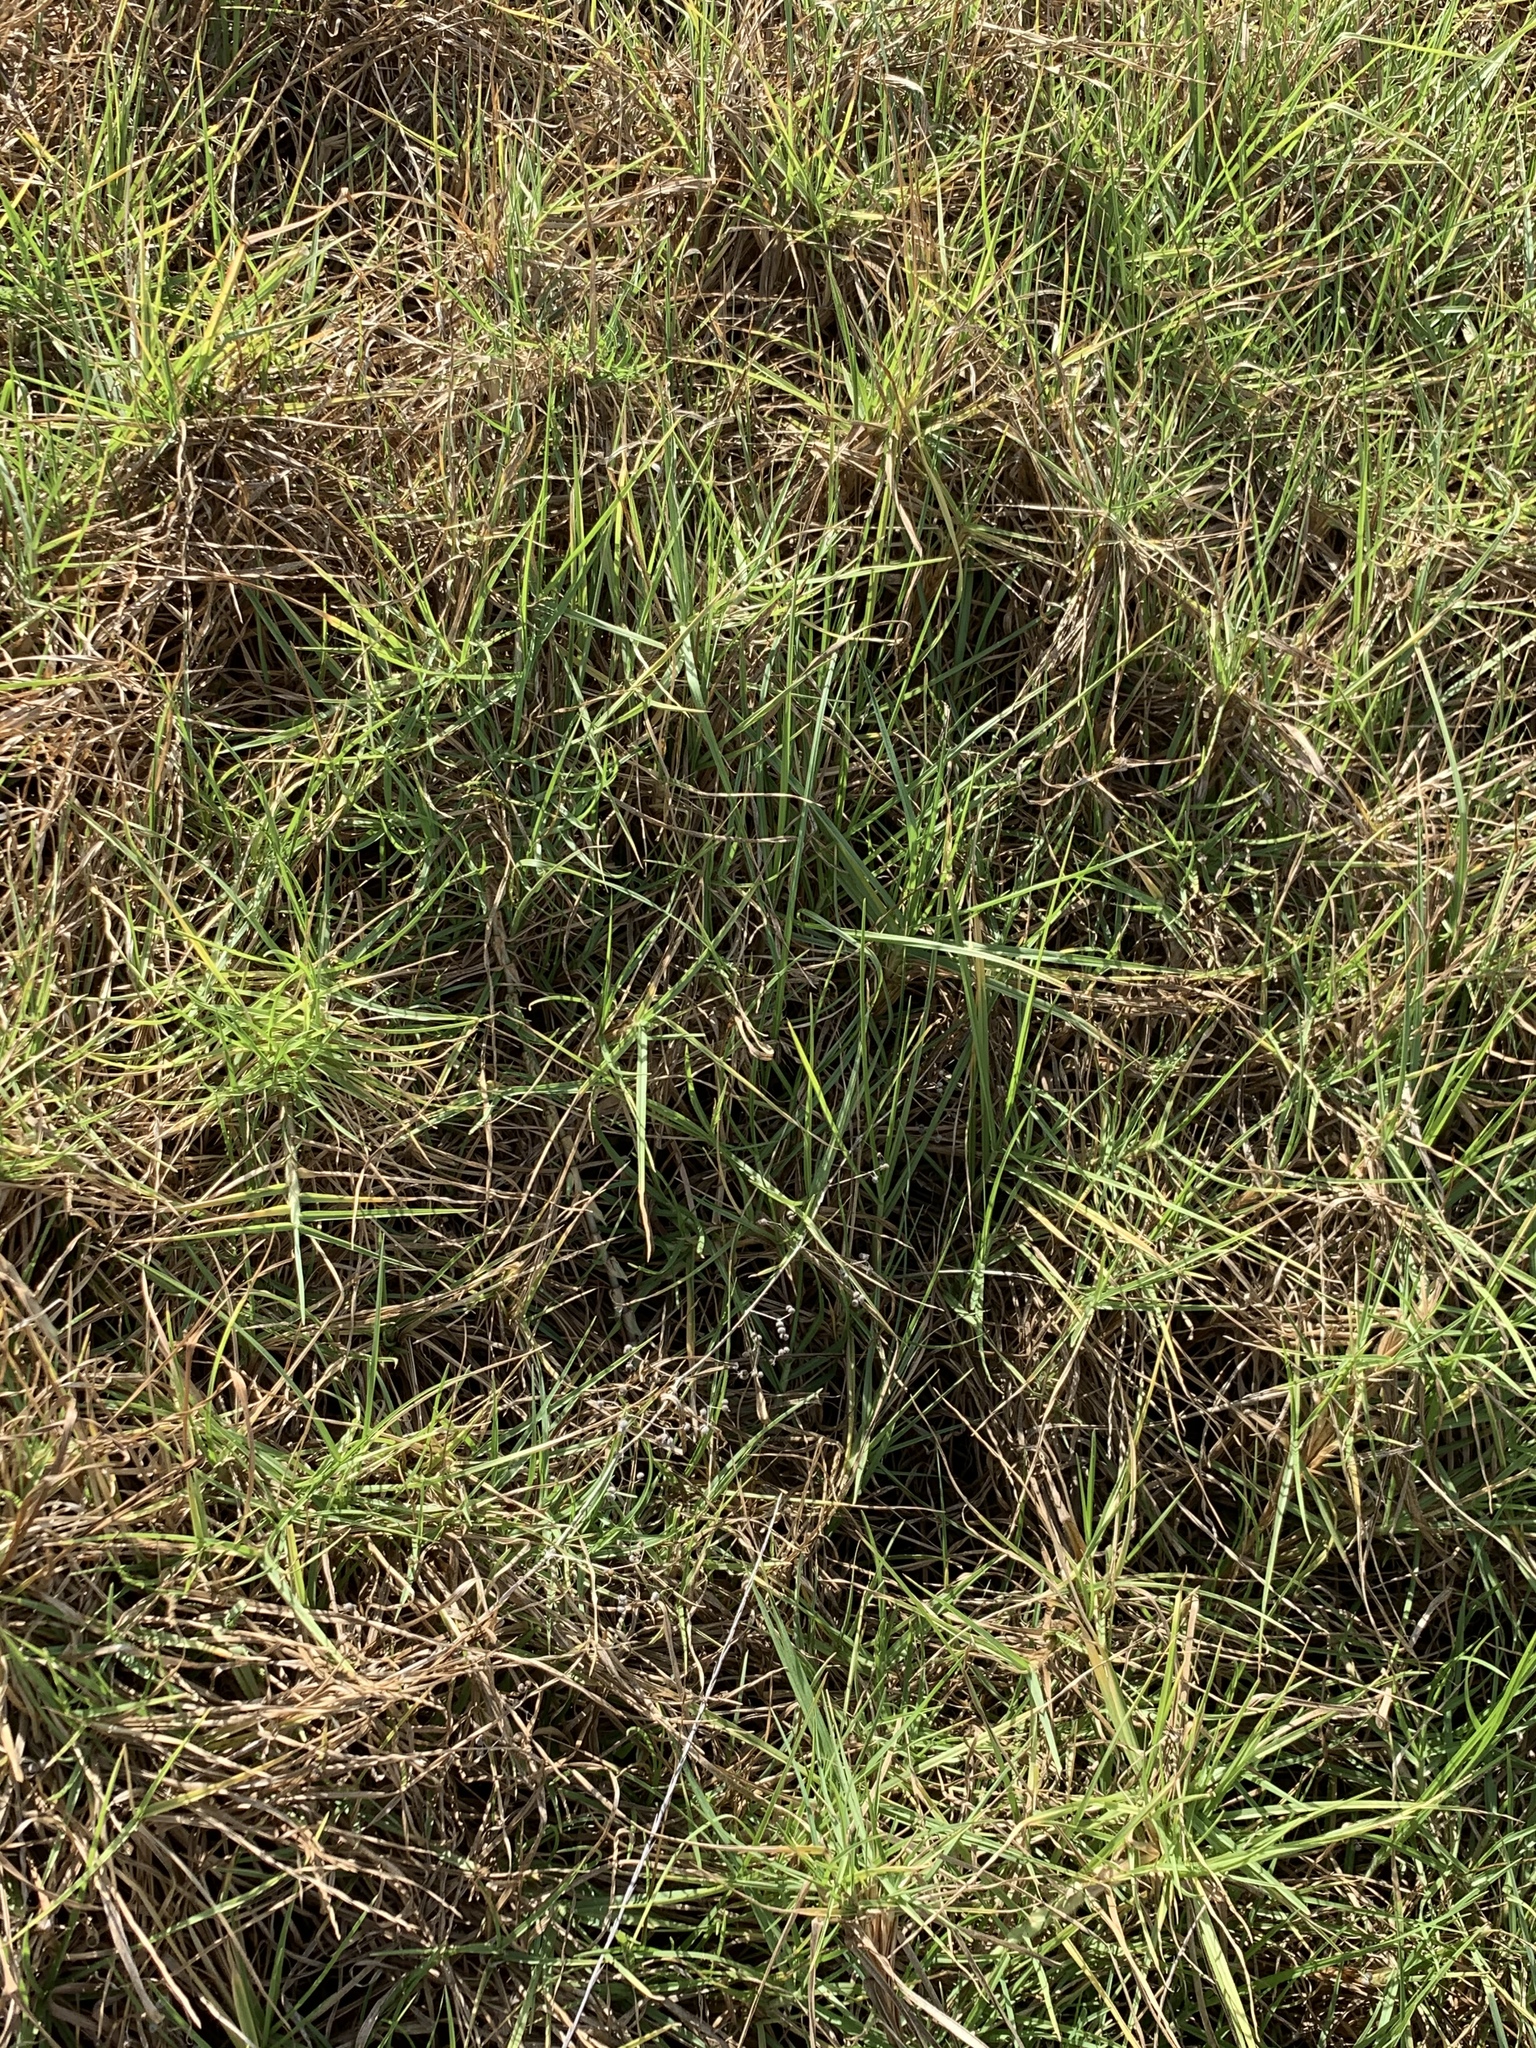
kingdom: Plantae
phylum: Tracheophyta
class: Liliopsida
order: Poales
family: Poaceae
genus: Cenchrus
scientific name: Cenchrus clandestinus
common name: Kikuyugrass
